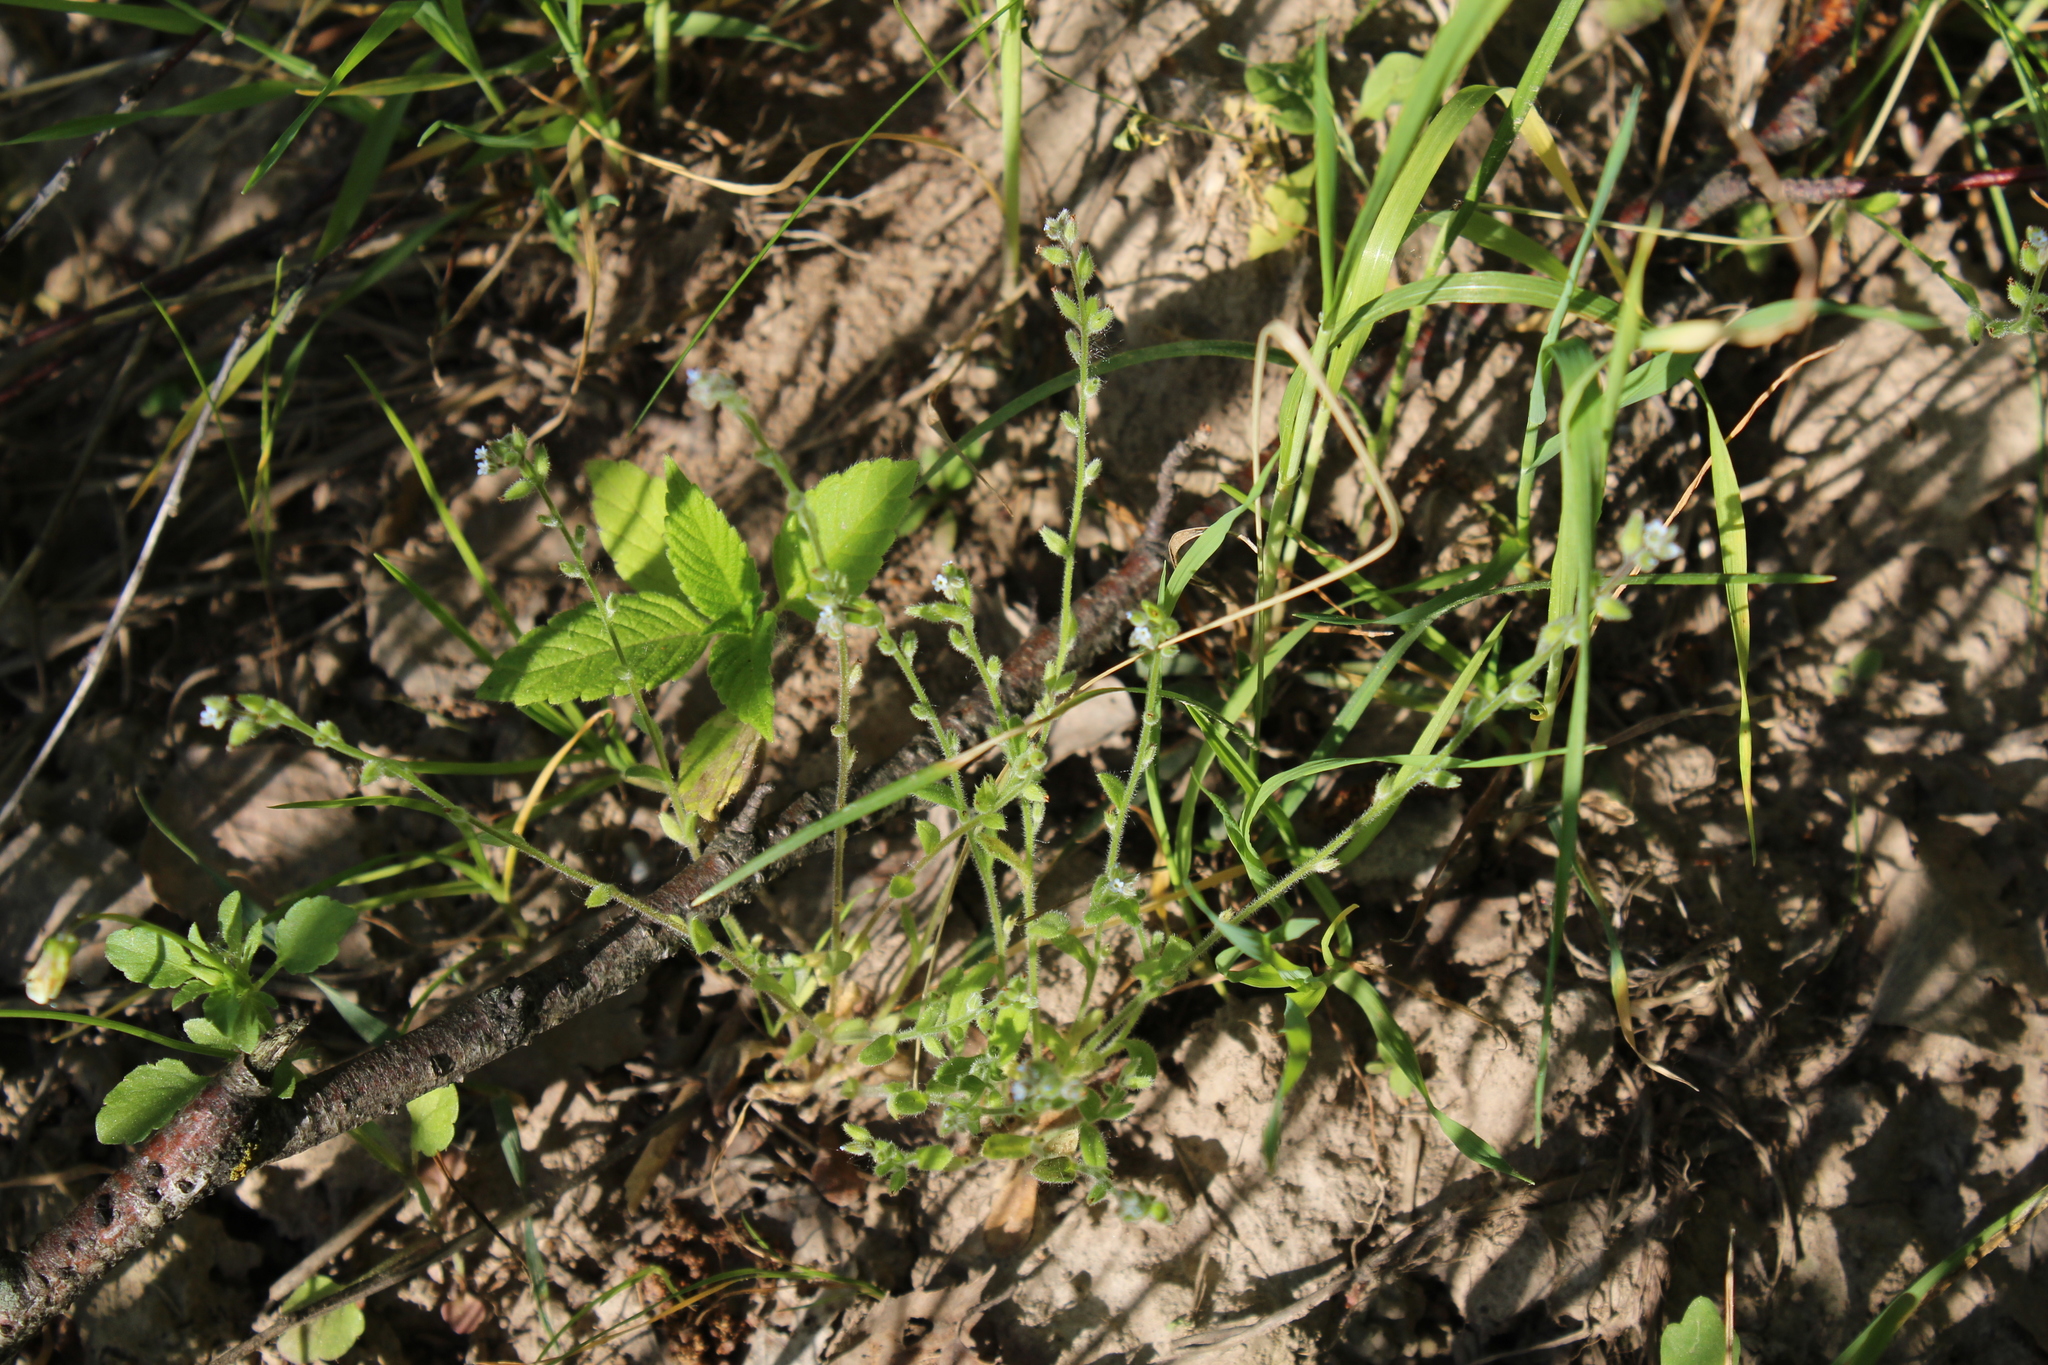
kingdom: Plantae
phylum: Tracheophyta
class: Magnoliopsida
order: Boraginales
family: Boraginaceae
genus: Myosotis
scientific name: Myosotis stricta
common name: Strict forget-me-not
